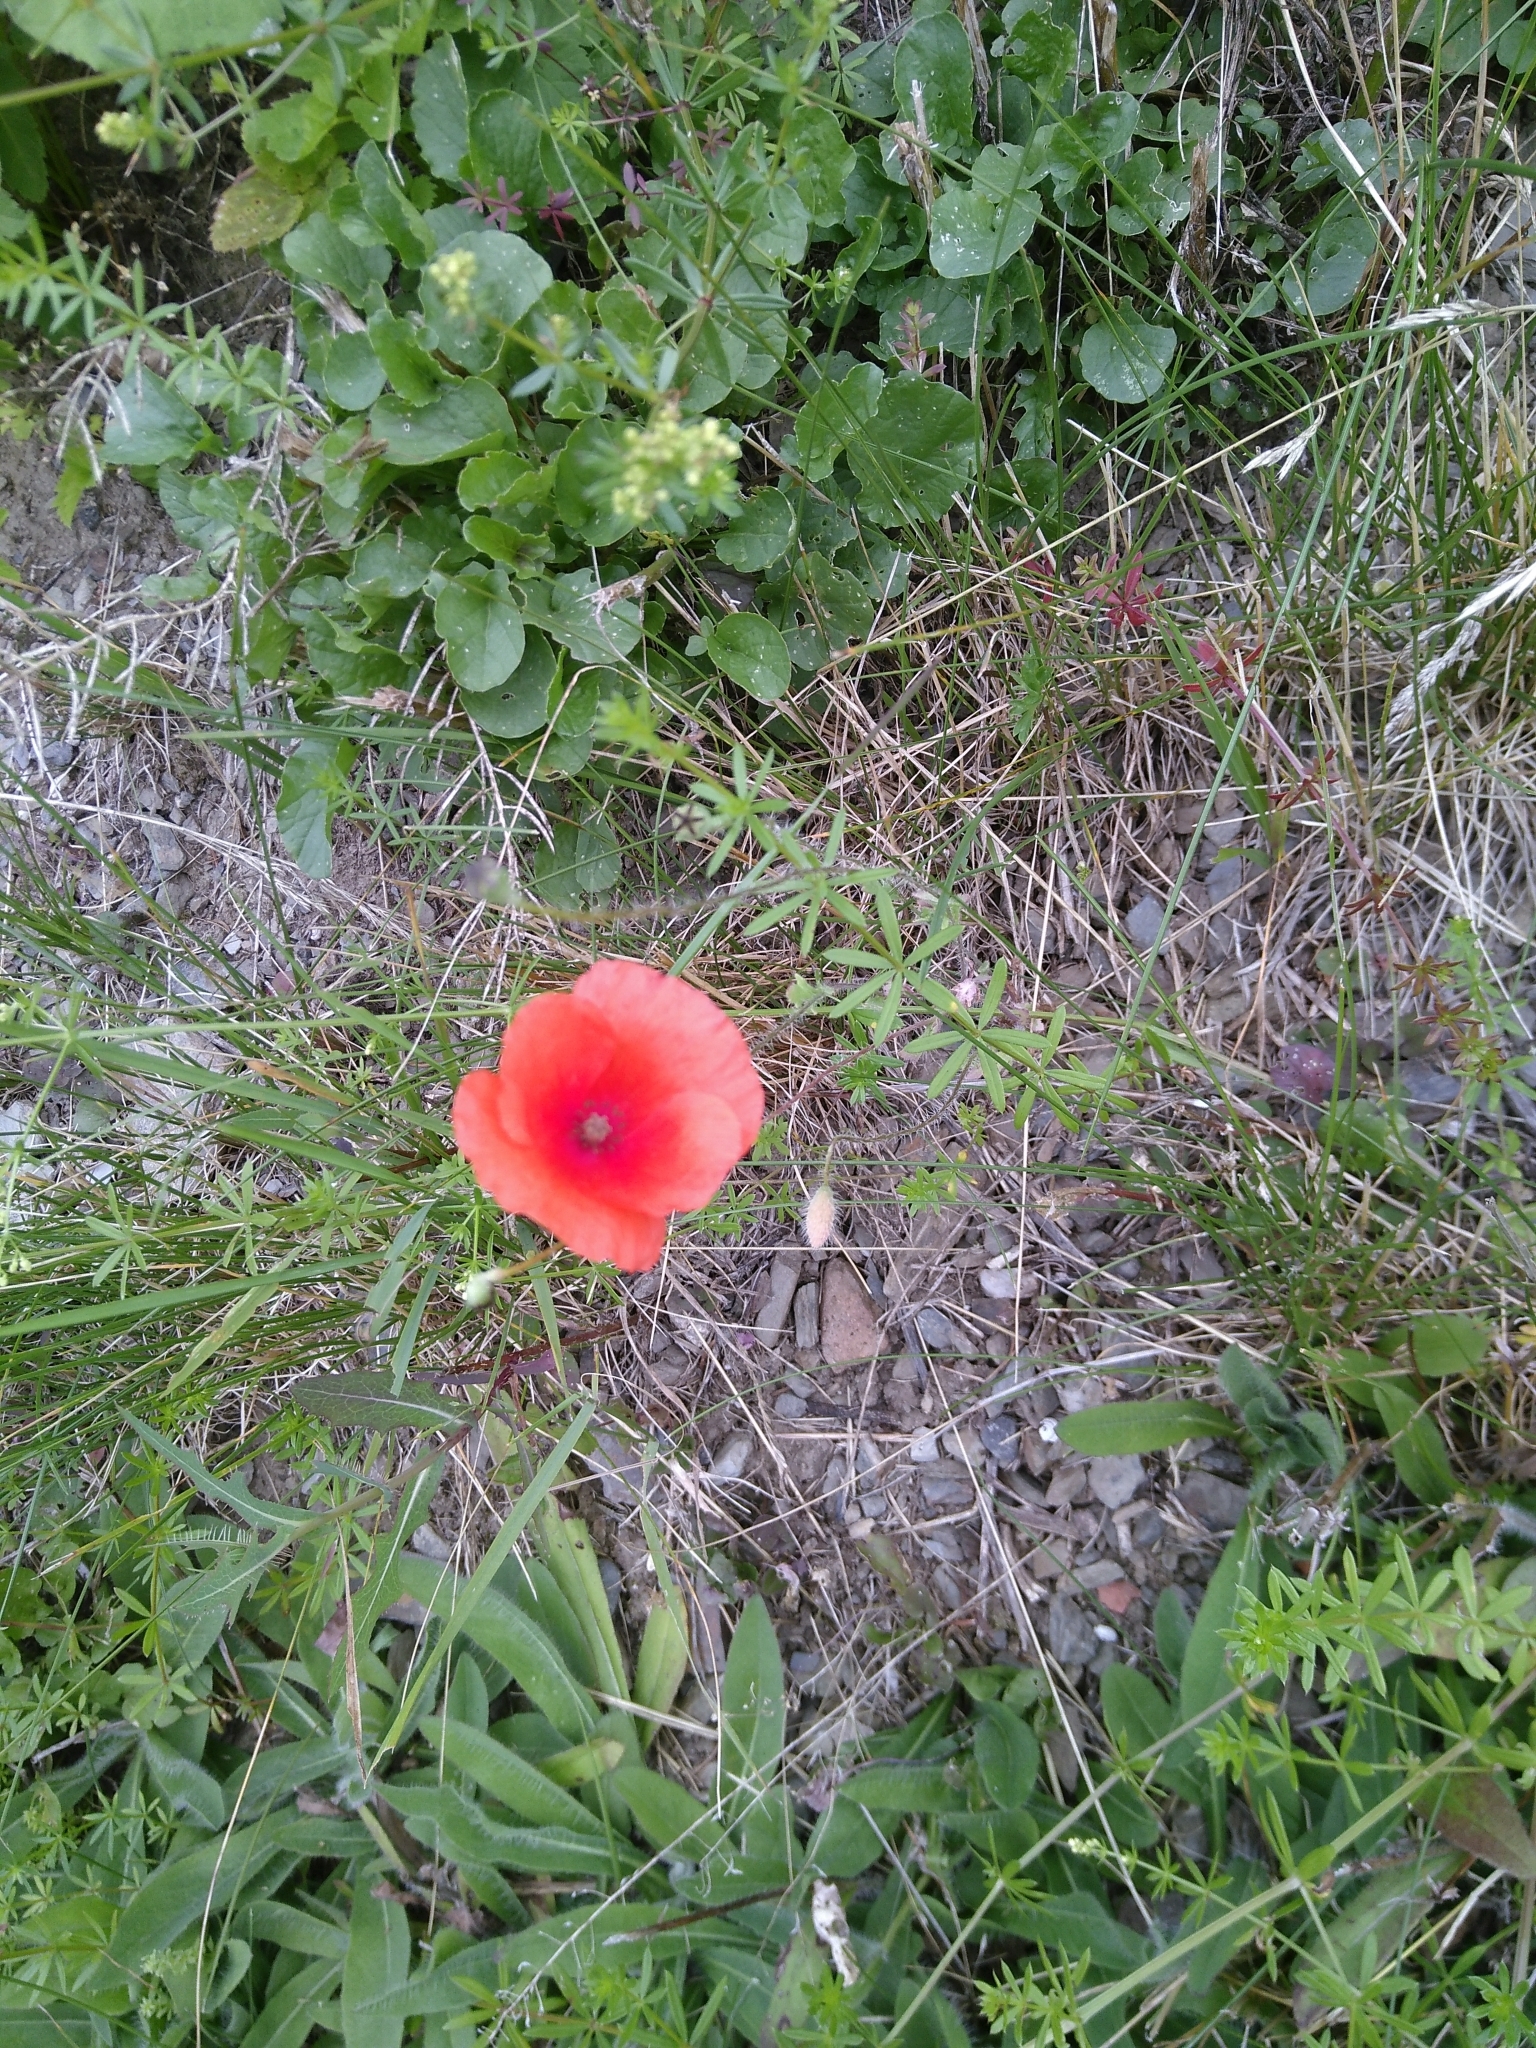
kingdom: Plantae
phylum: Tracheophyta
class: Magnoliopsida
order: Ranunculales
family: Papaveraceae
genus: Papaver
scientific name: Papaver rhoeas
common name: Corn poppy
